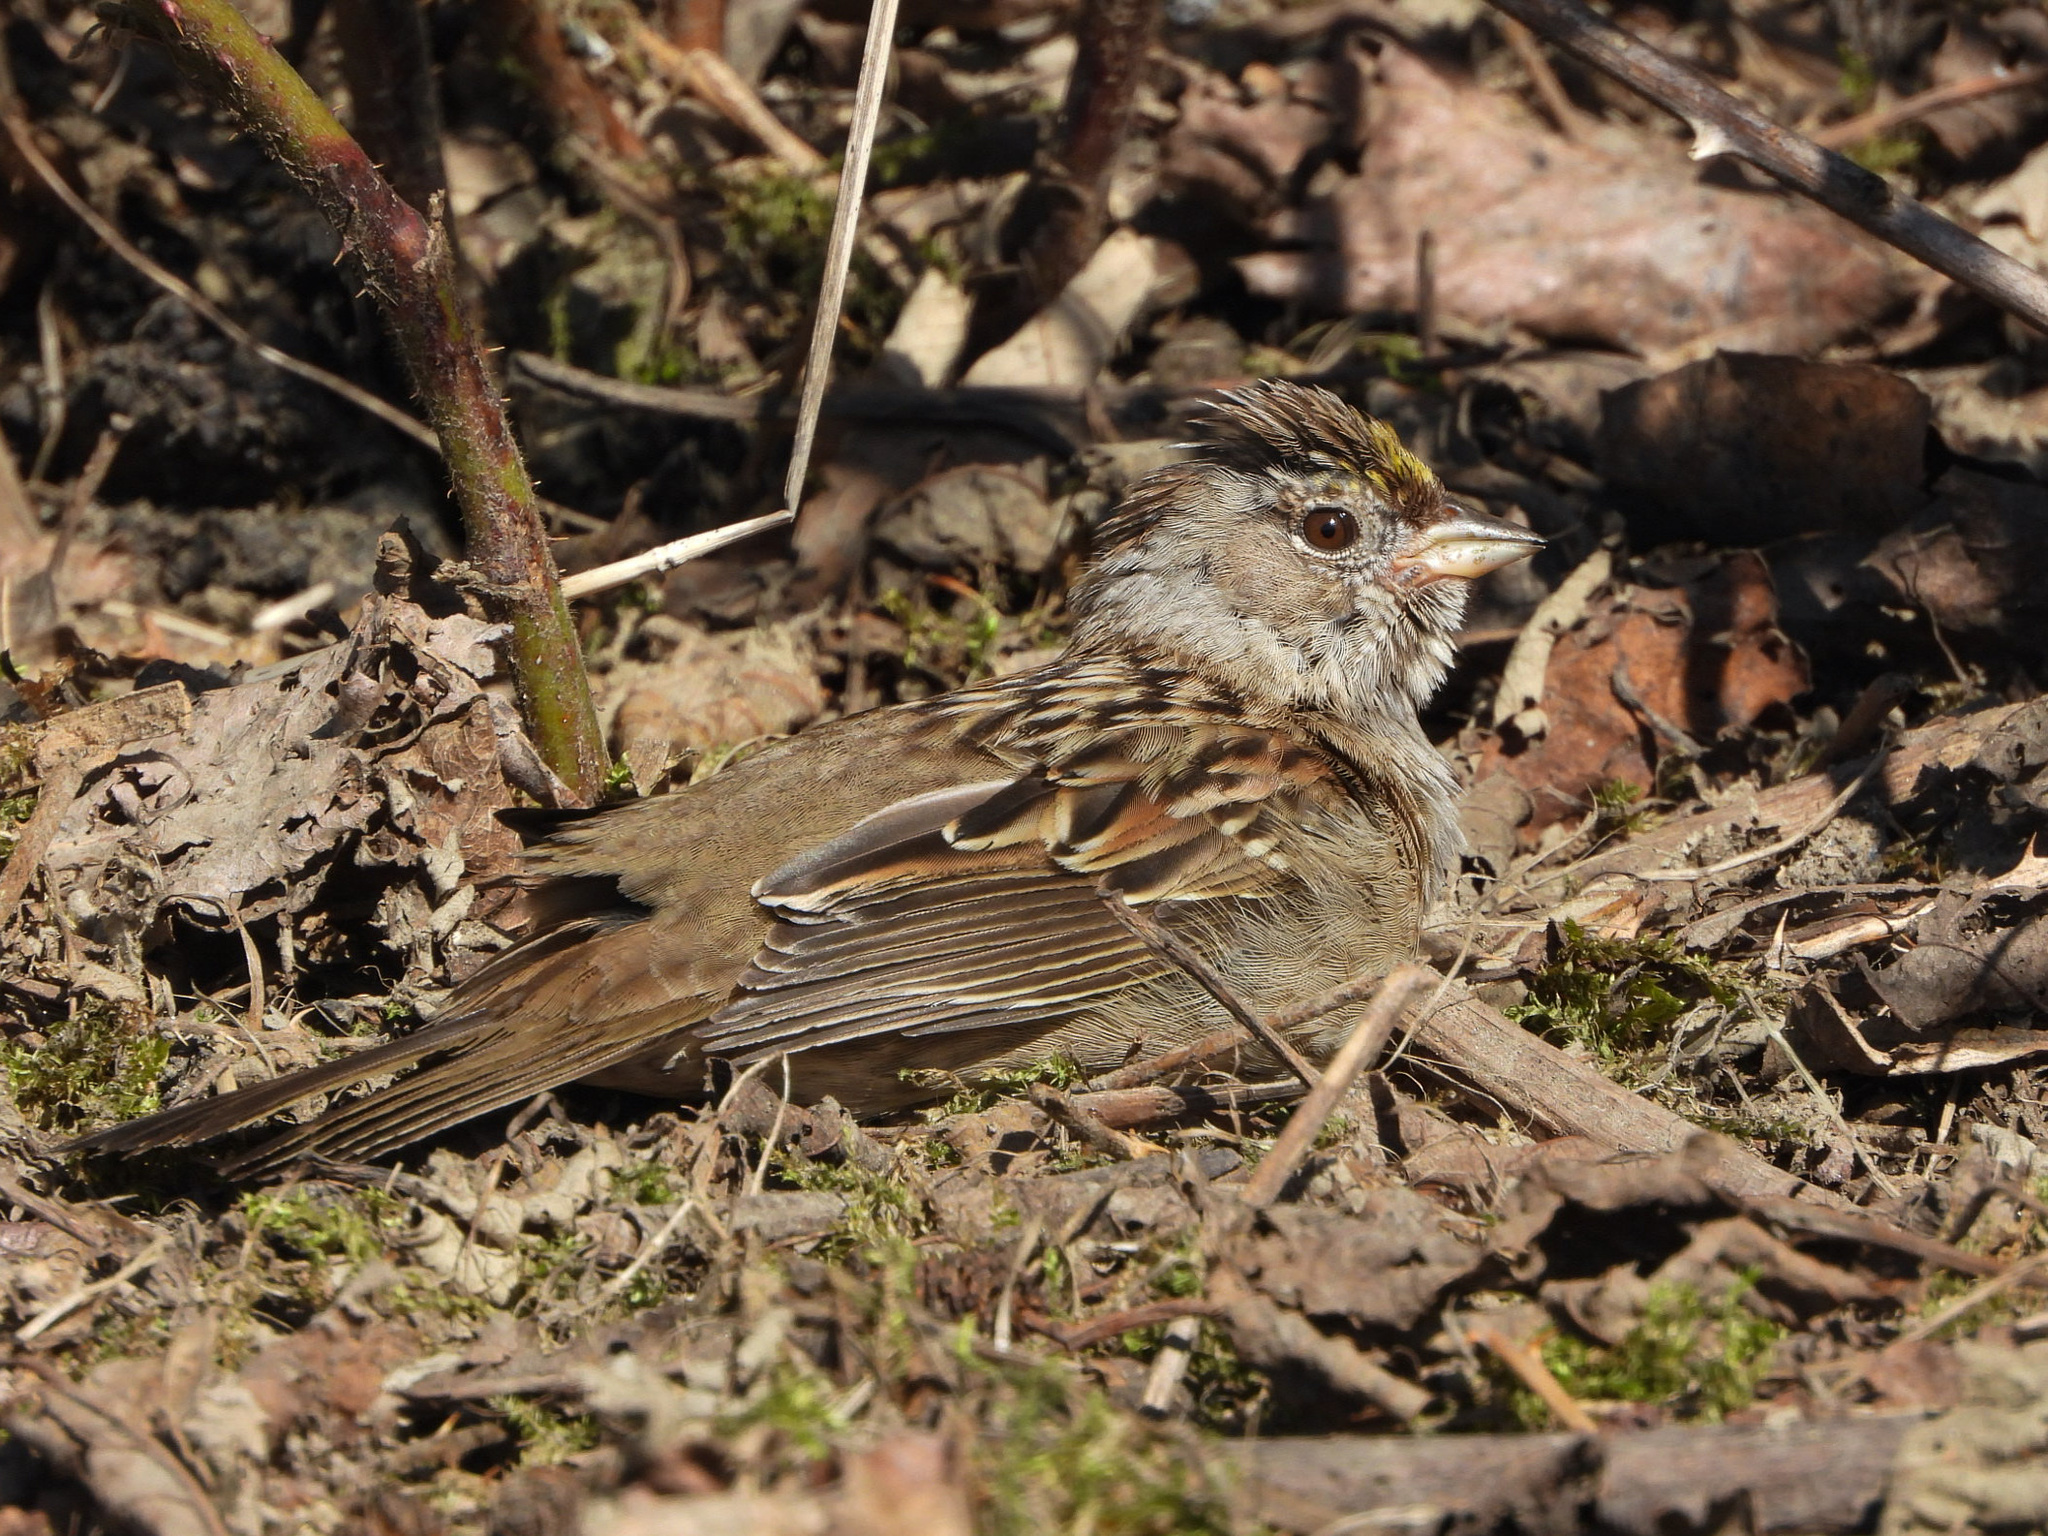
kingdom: Animalia
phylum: Chordata
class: Aves
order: Passeriformes
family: Passerellidae
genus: Zonotrichia
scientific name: Zonotrichia atricapilla
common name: Golden-crowned sparrow
